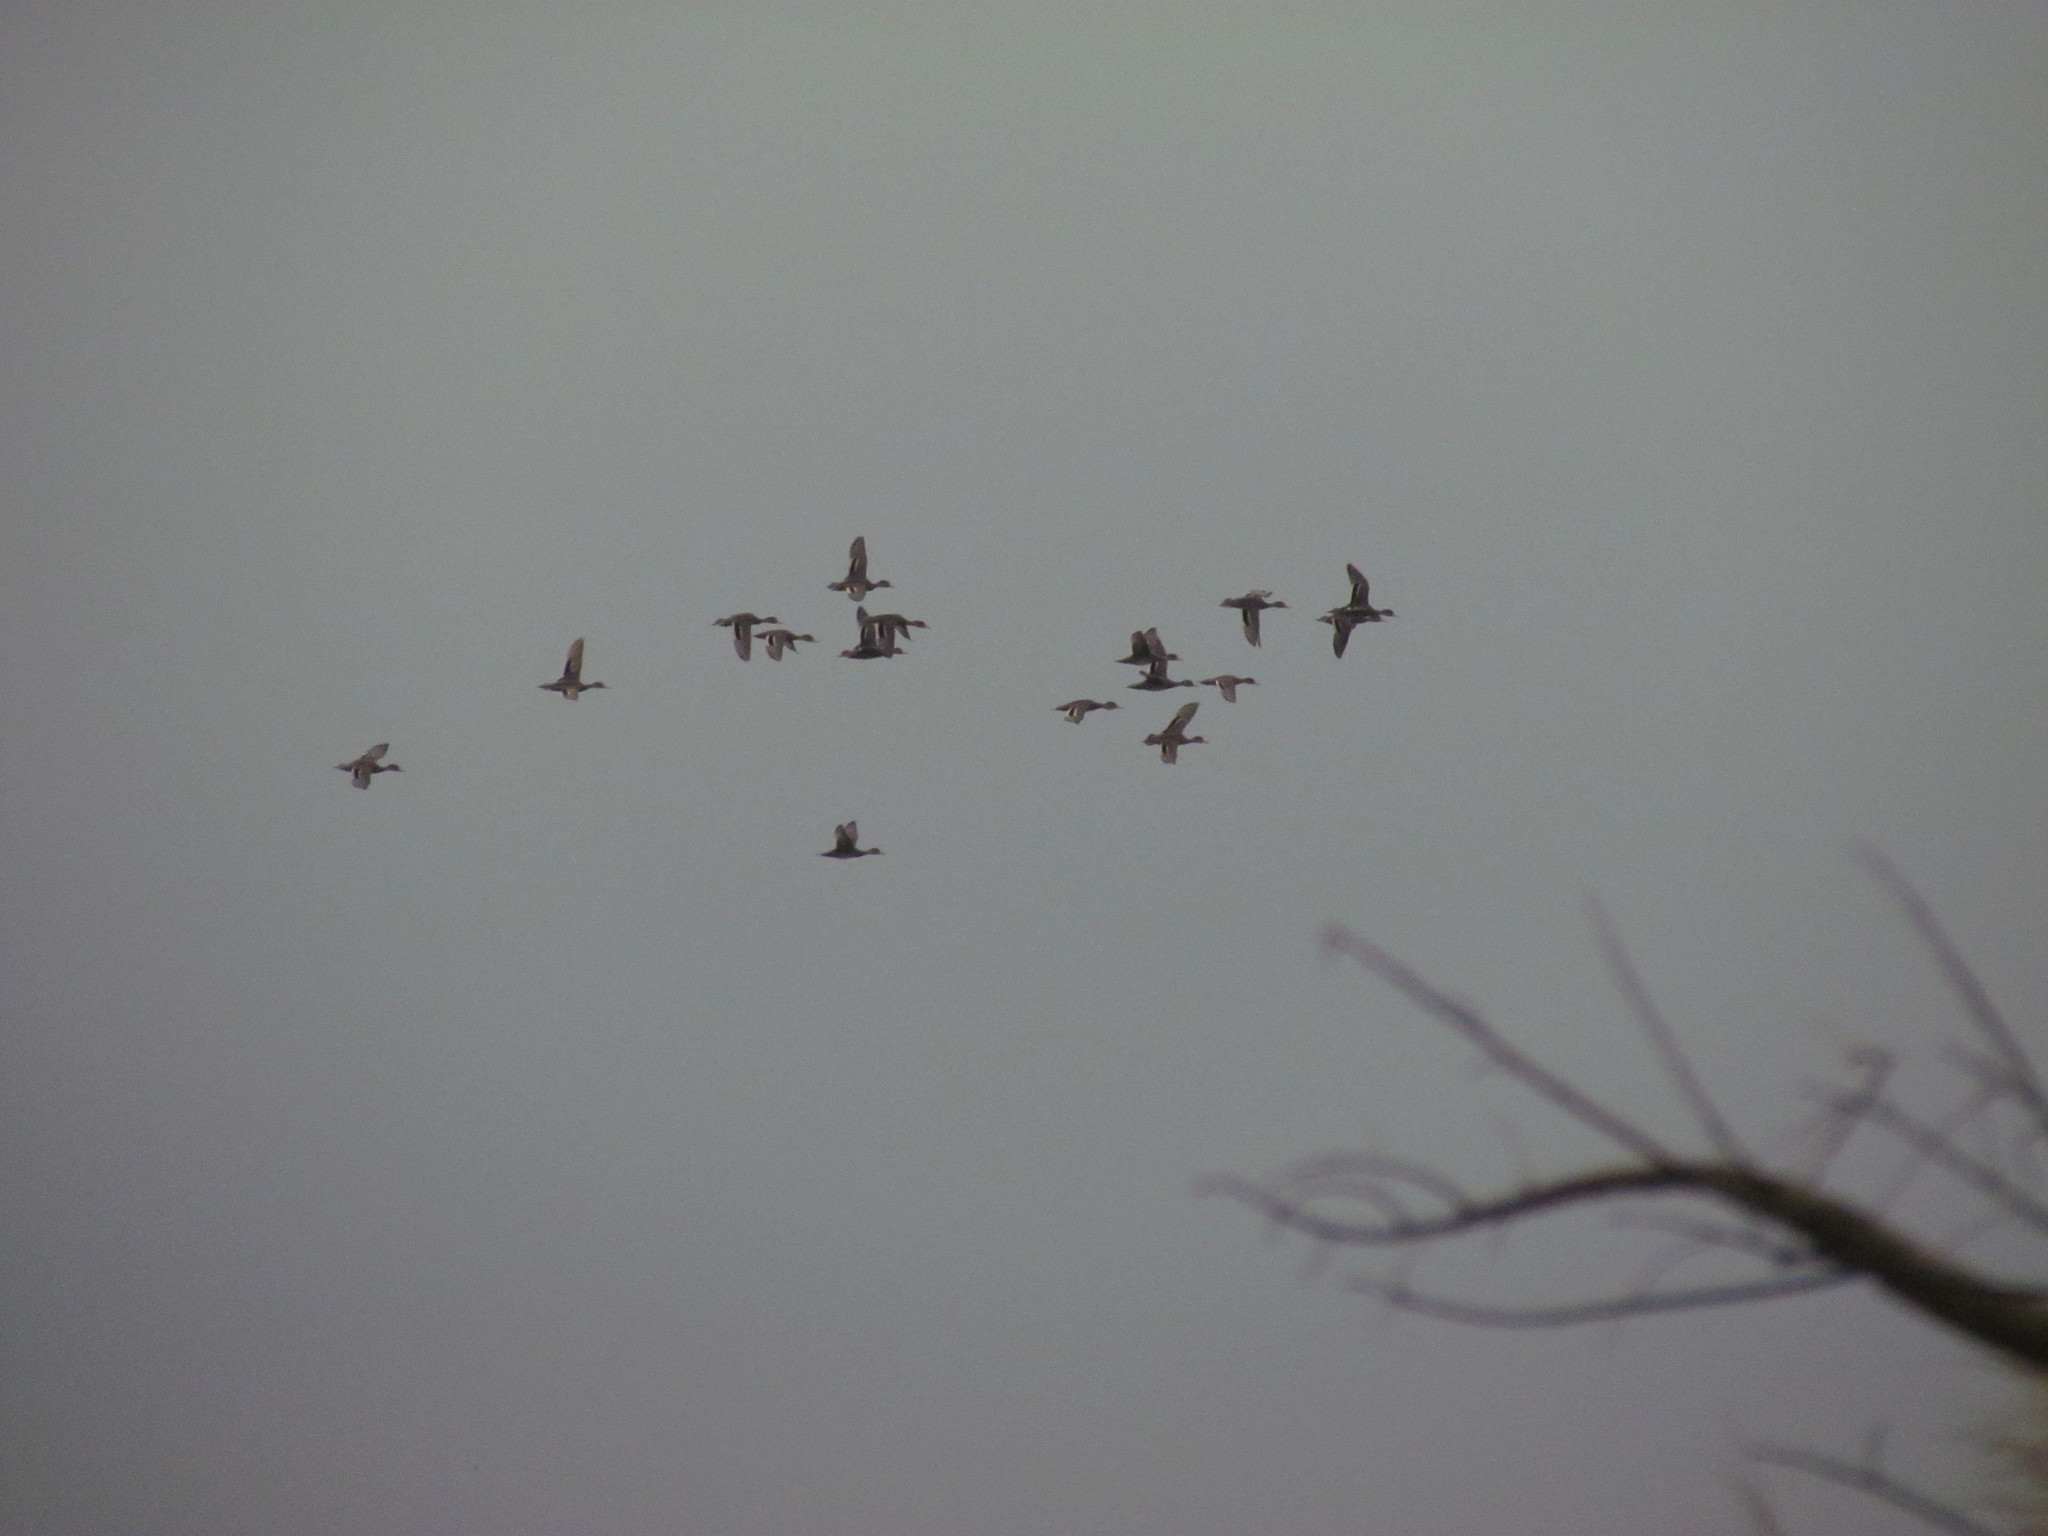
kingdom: Animalia
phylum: Chordata
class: Aves
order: Anseriformes
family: Anatidae
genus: Anas
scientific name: Anas georgica
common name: Yellow-billed pintail
